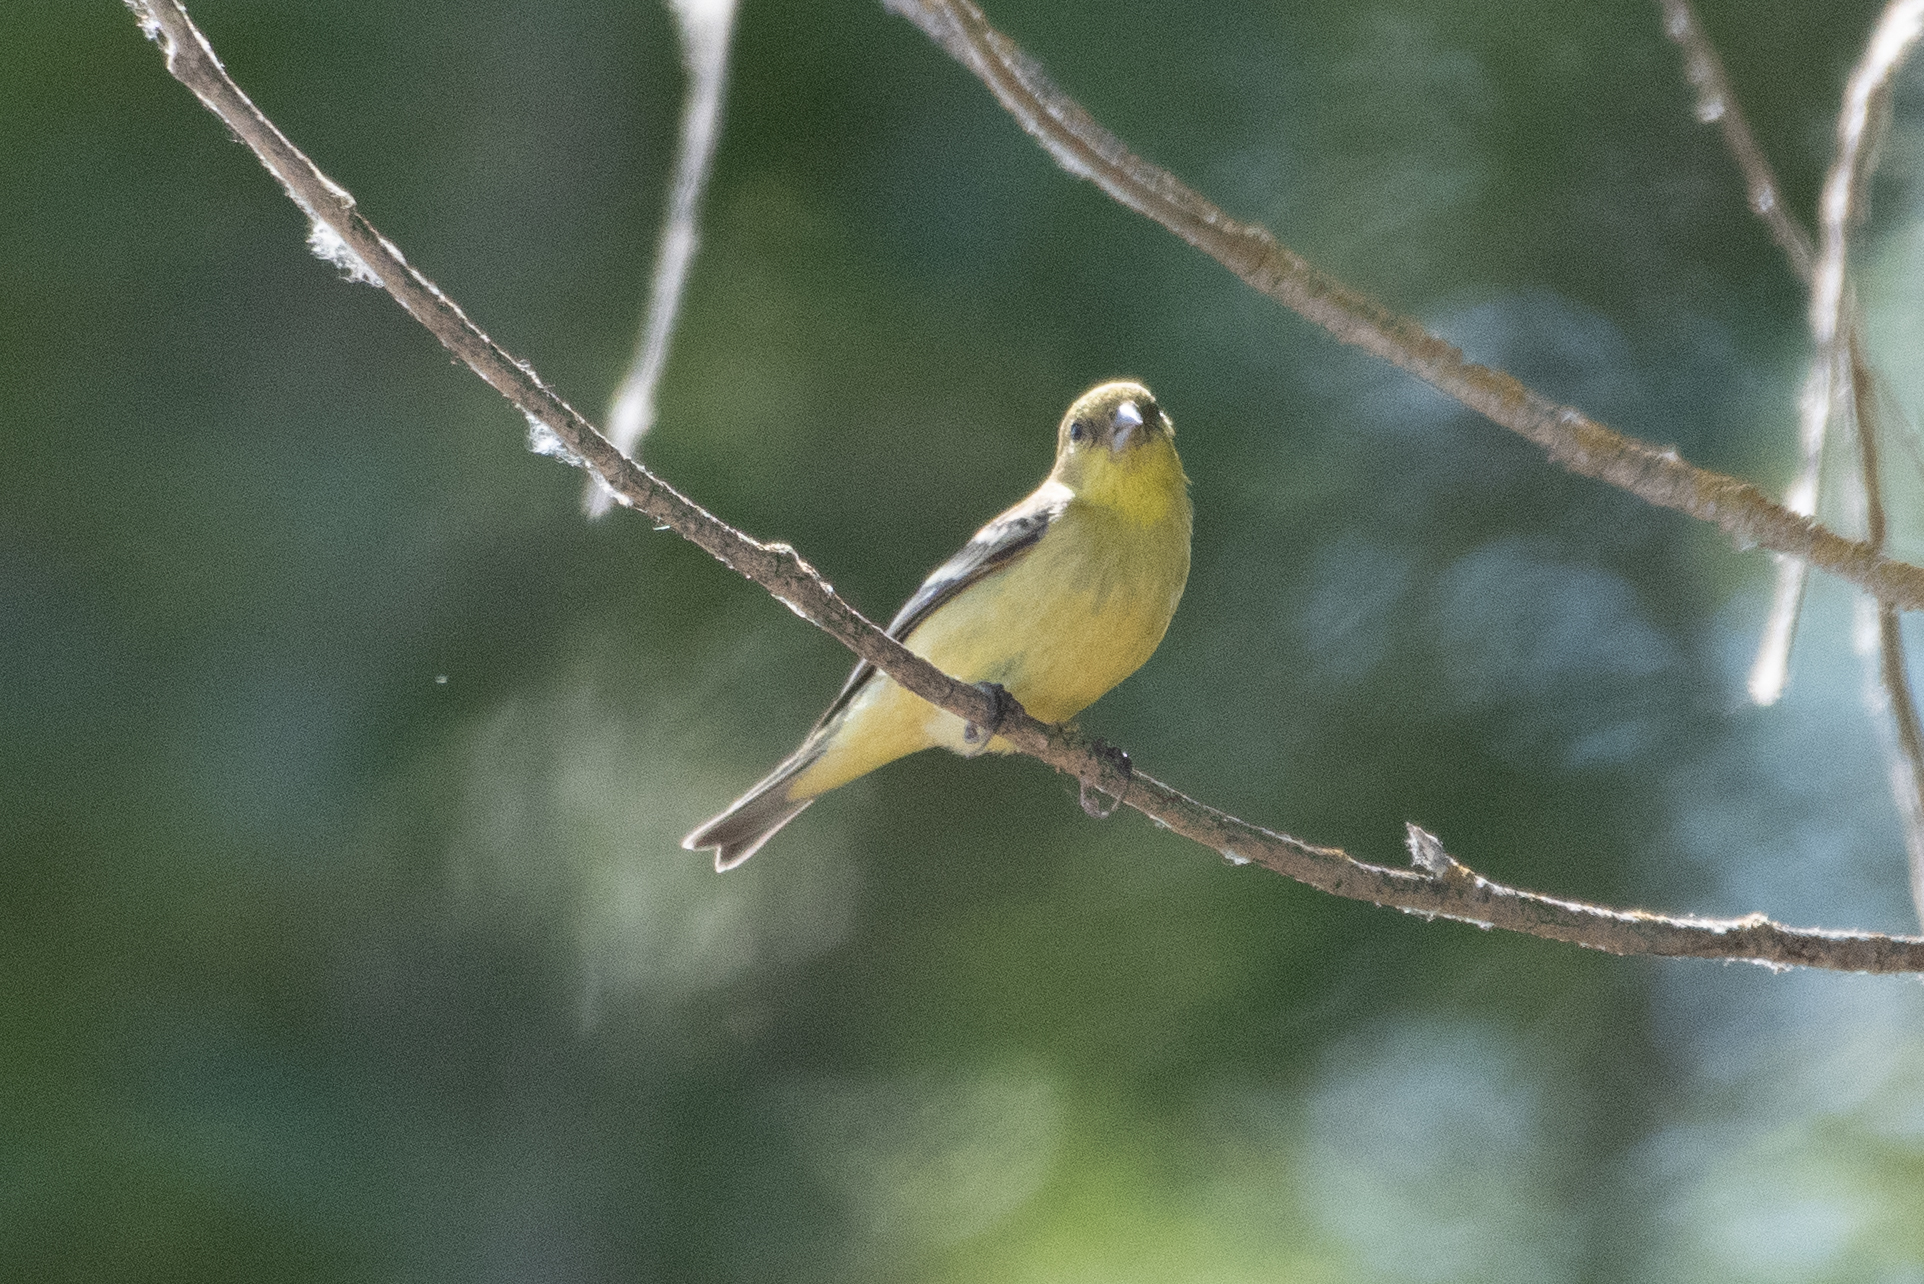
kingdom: Animalia
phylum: Chordata
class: Aves
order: Passeriformes
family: Fringillidae
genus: Spinus
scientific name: Spinus psaltria
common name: Lesser goldfinch
